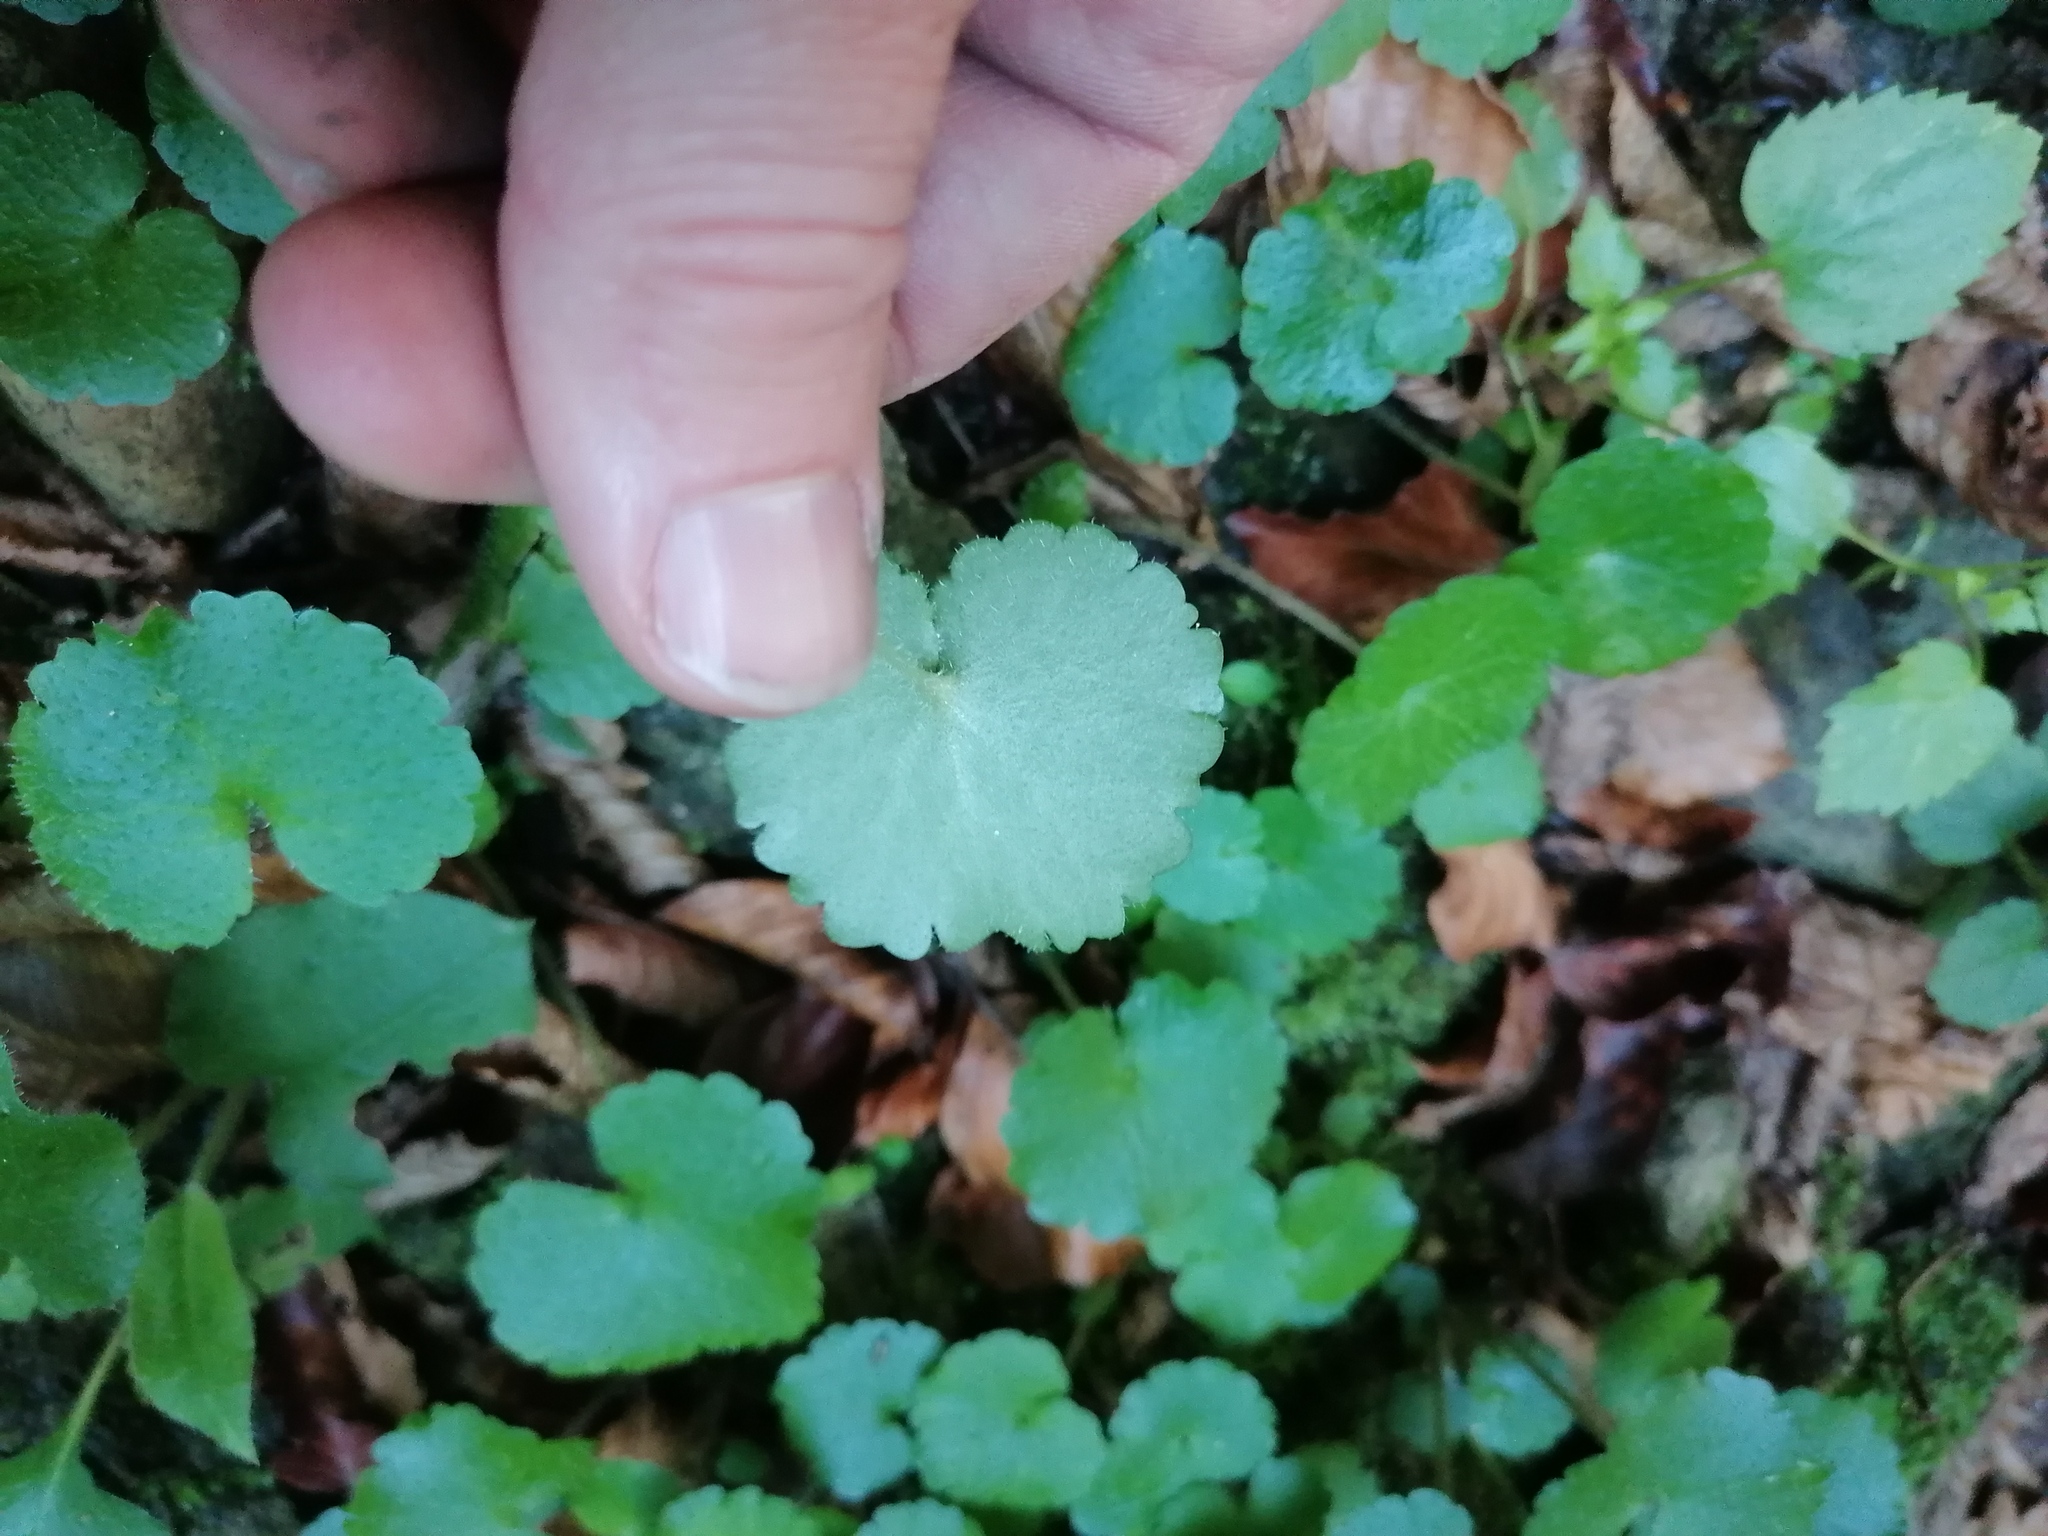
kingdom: Plantae
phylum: Tracheophyta
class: Magnoliopsida
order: Saxifragales
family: Saxifragaceae
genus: Chrysosplenium
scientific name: Chrysosplenium alternifolium
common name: Alternate-leaved golden-saxifrage
